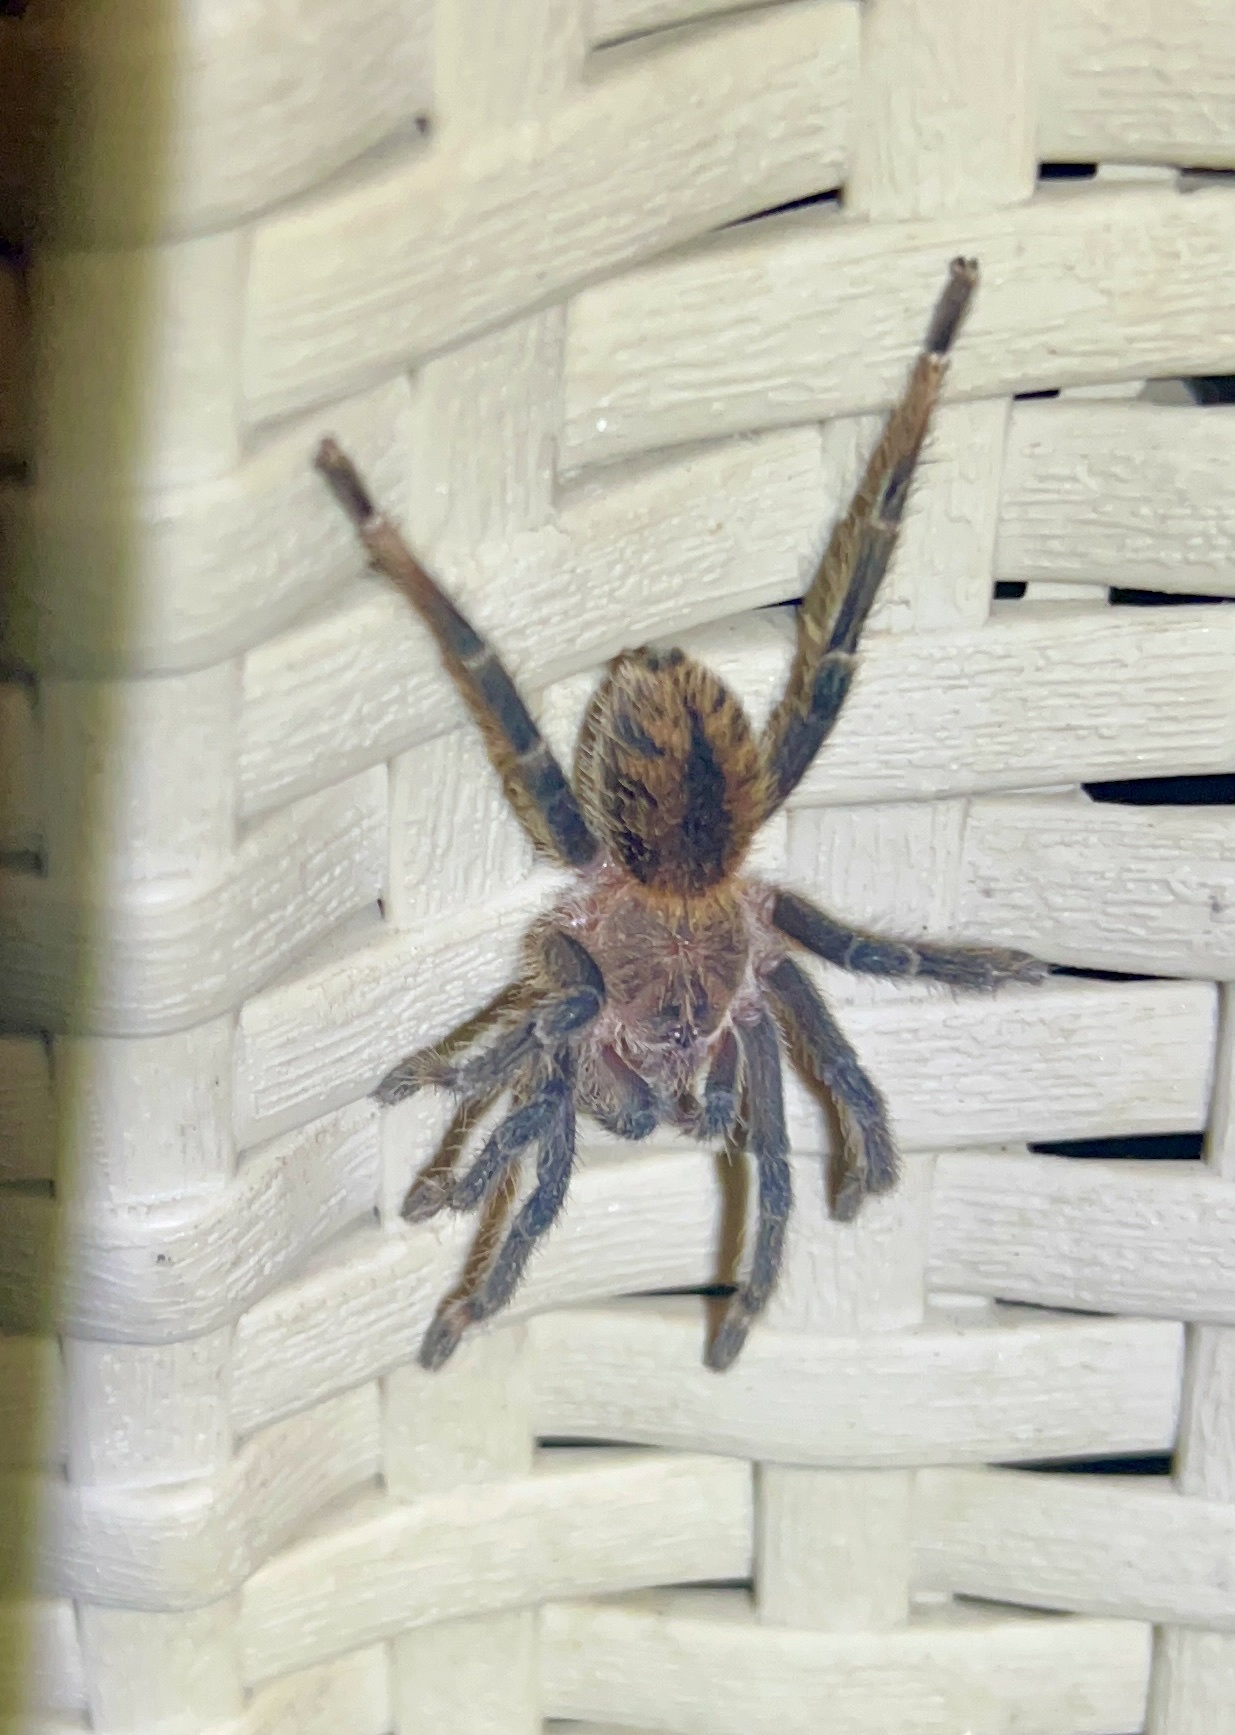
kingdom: Animalia
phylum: Arthropoda
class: Arachnida
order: Araneae
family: Theraphosidae
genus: Kankuamo
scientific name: Kankuamo marquezi
